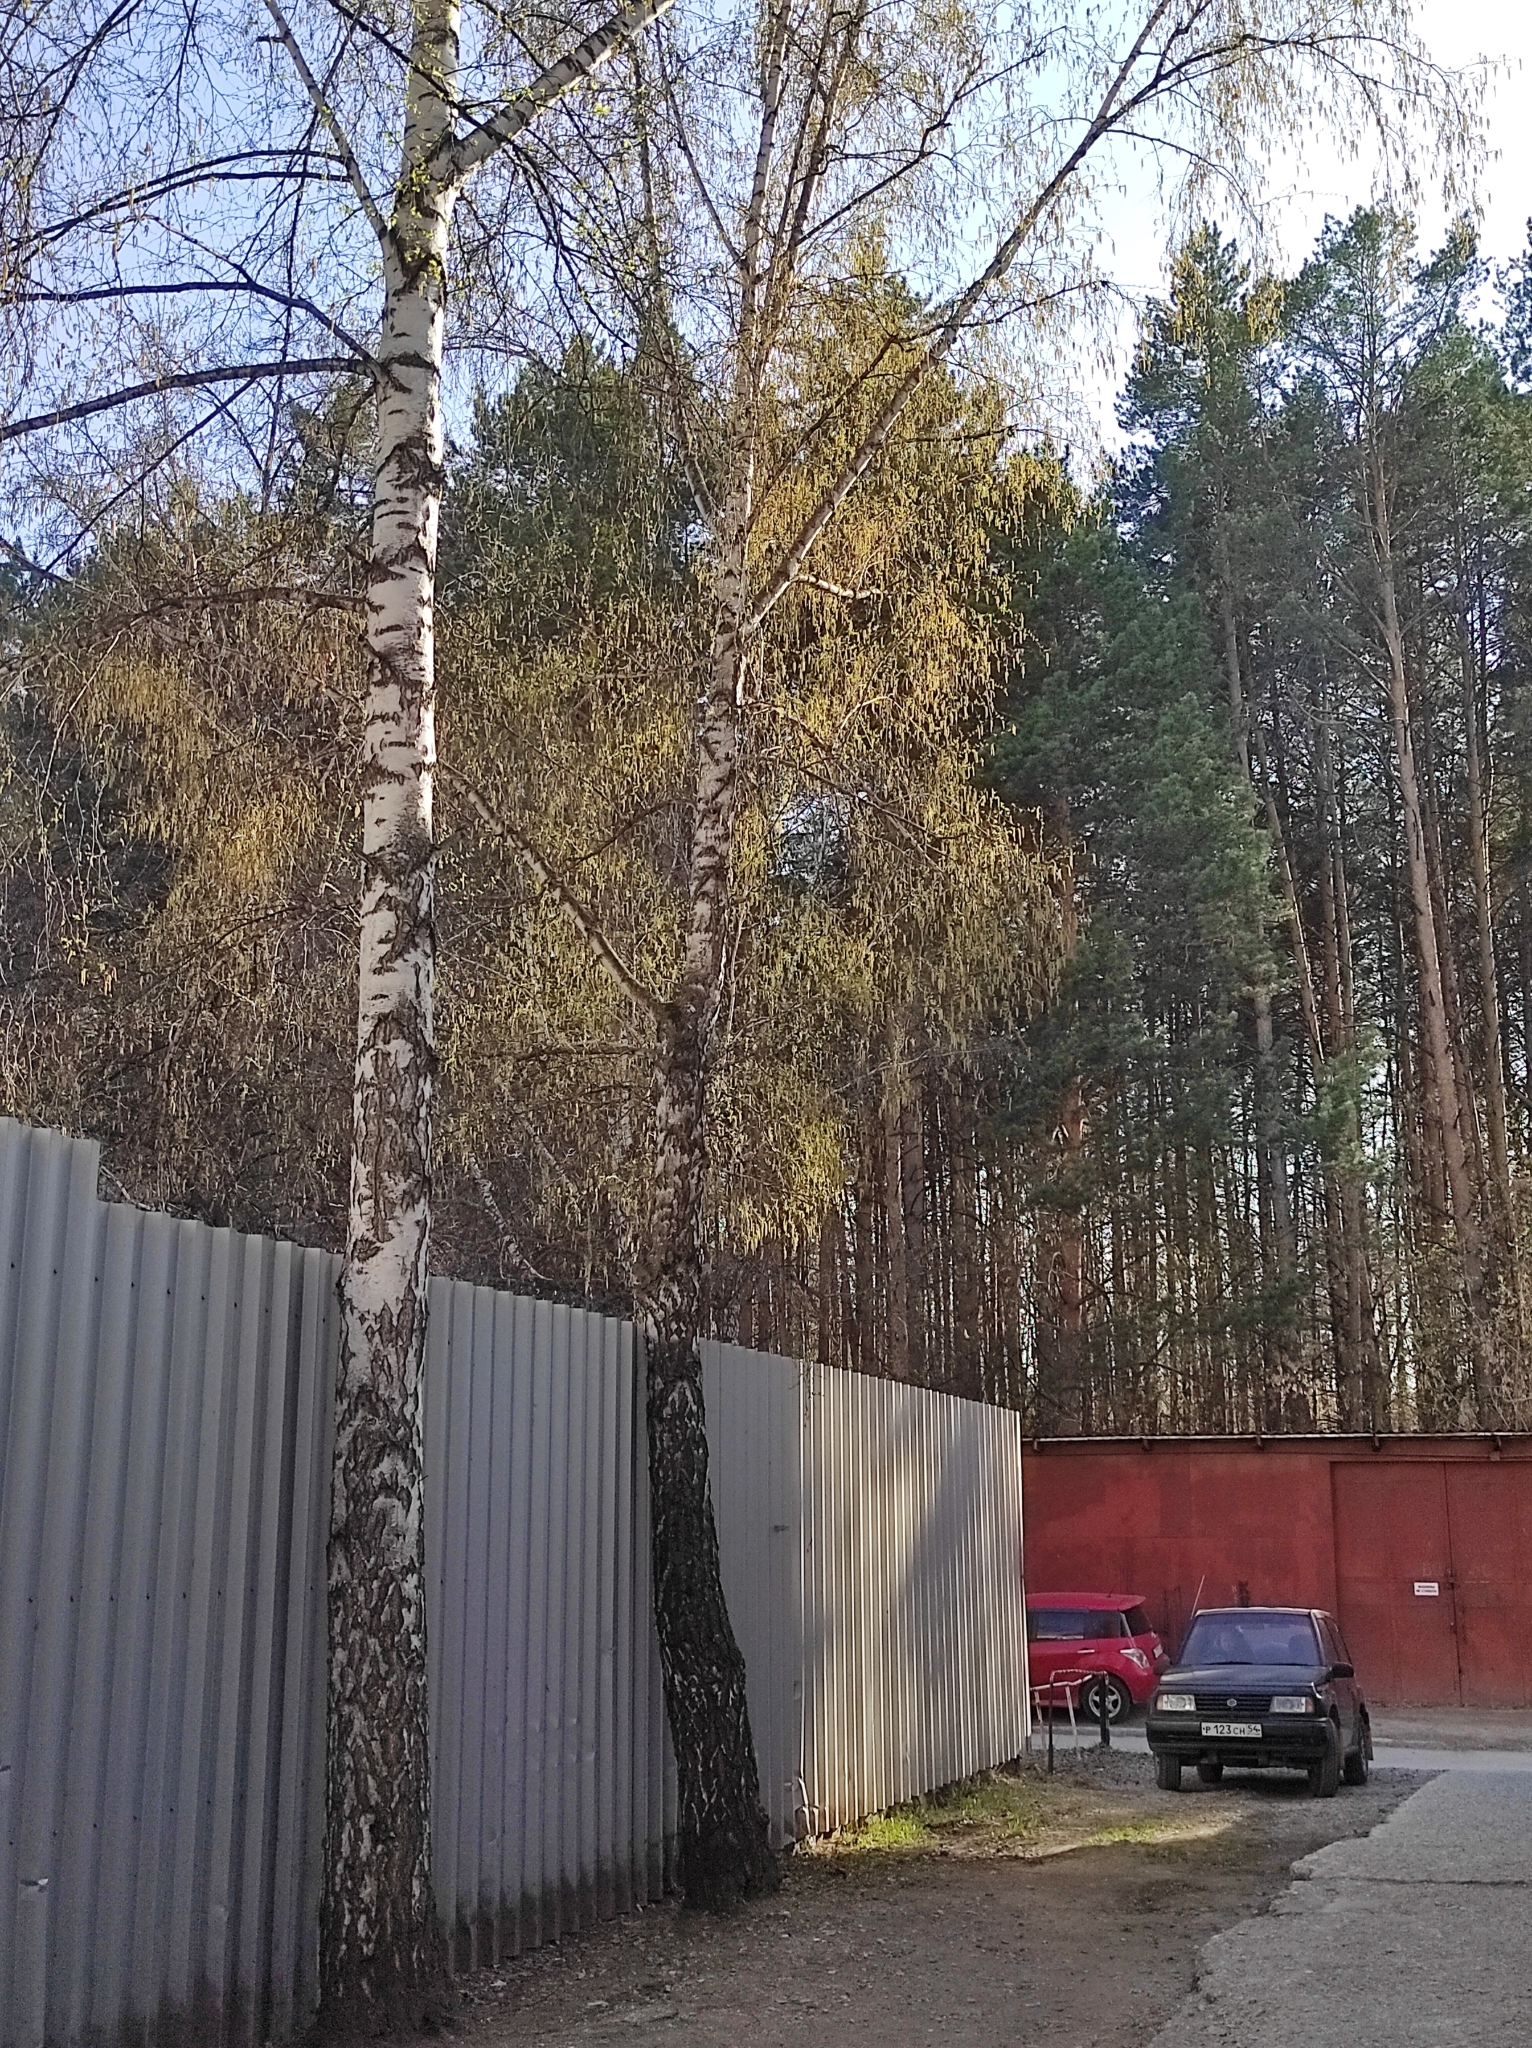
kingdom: Plantae
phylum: Tracheophyta
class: Pinopsida
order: Pinales
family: Pinaceae
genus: Pinus
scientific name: Pinus sylvestris
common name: Scots pine
